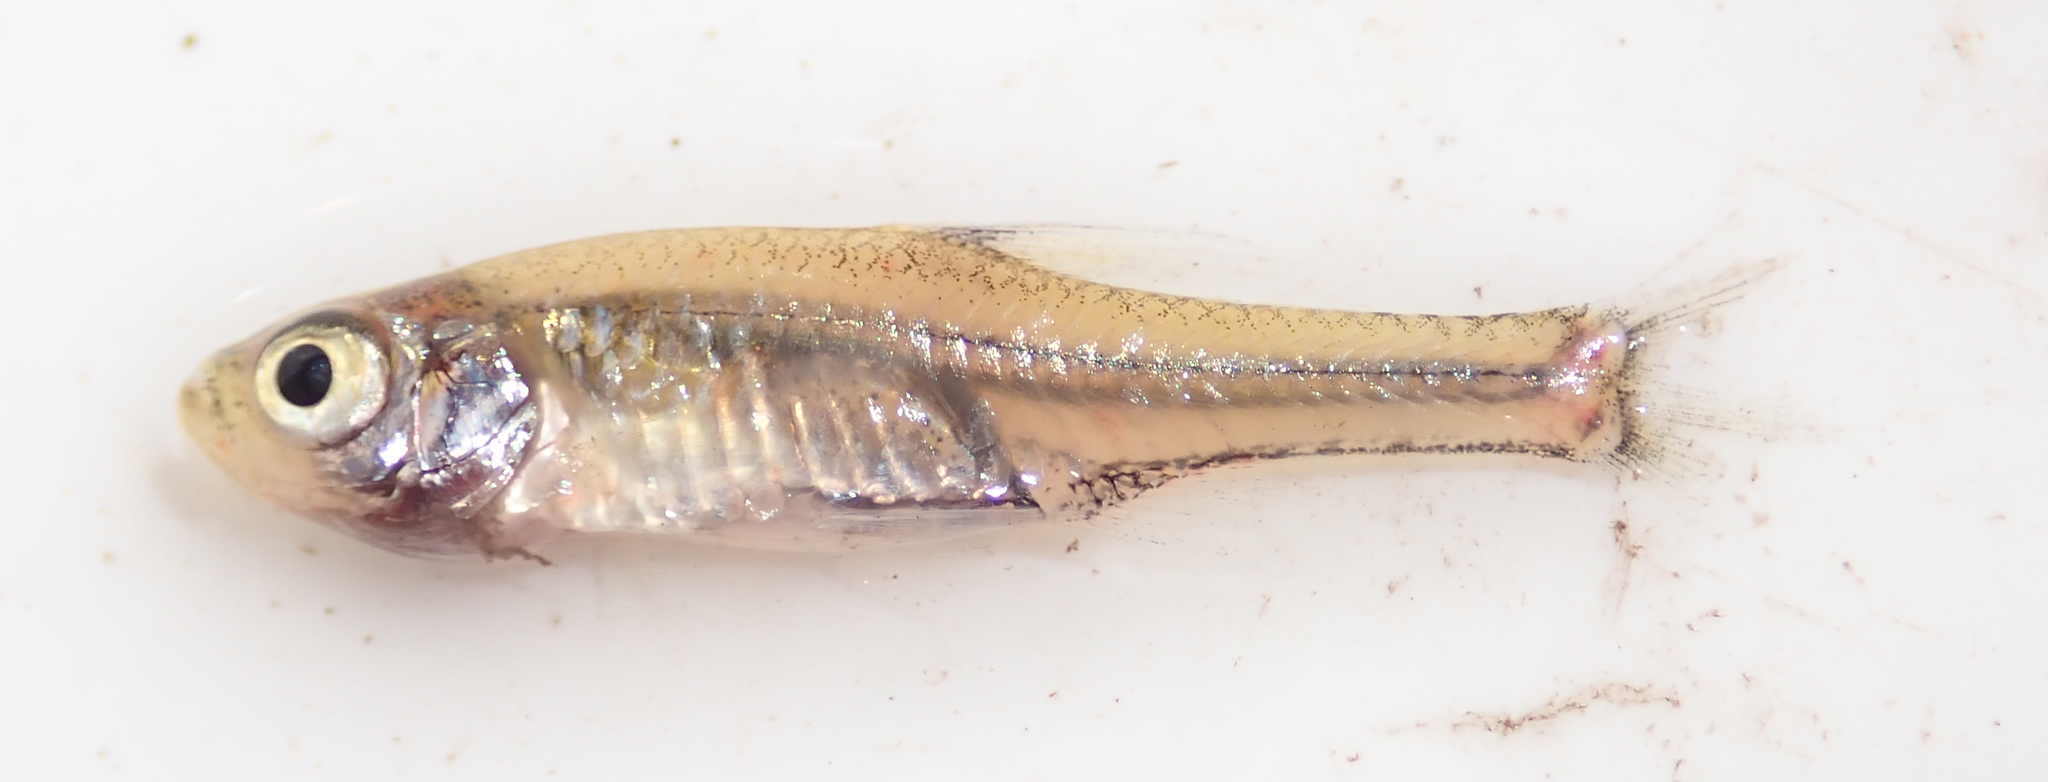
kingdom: Animalia
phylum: Chordata
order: Cypriniformes
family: Cyprinidae
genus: Coptostomabarbus
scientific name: Coptostomabarbus wittei
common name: Upjaw barb
